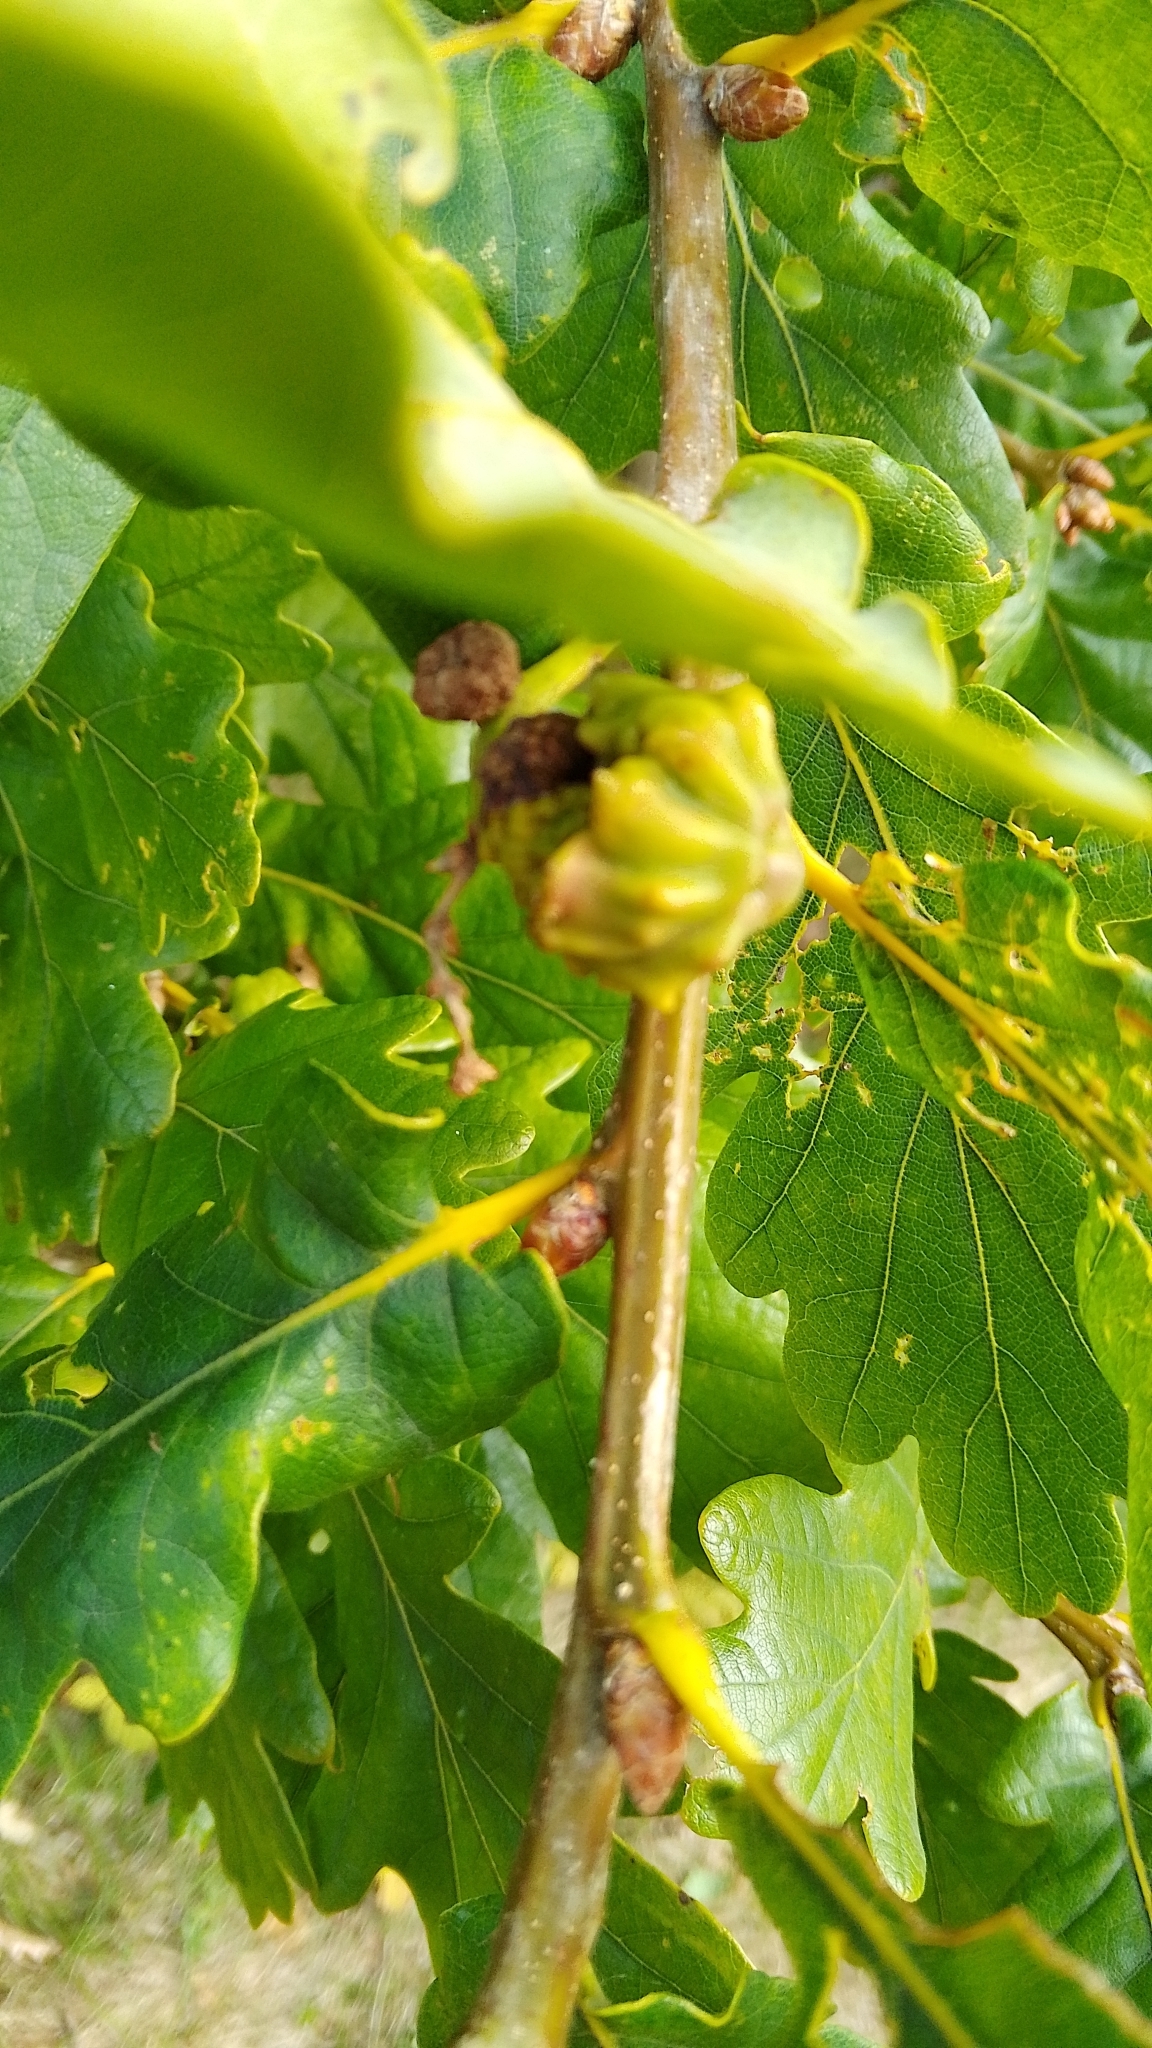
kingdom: Animalia
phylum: Arthropoda
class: Insecta
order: Hymenoptera
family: Cynipidae
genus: Andricus
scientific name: Andricus quercuscalicis
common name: Knopper gall
